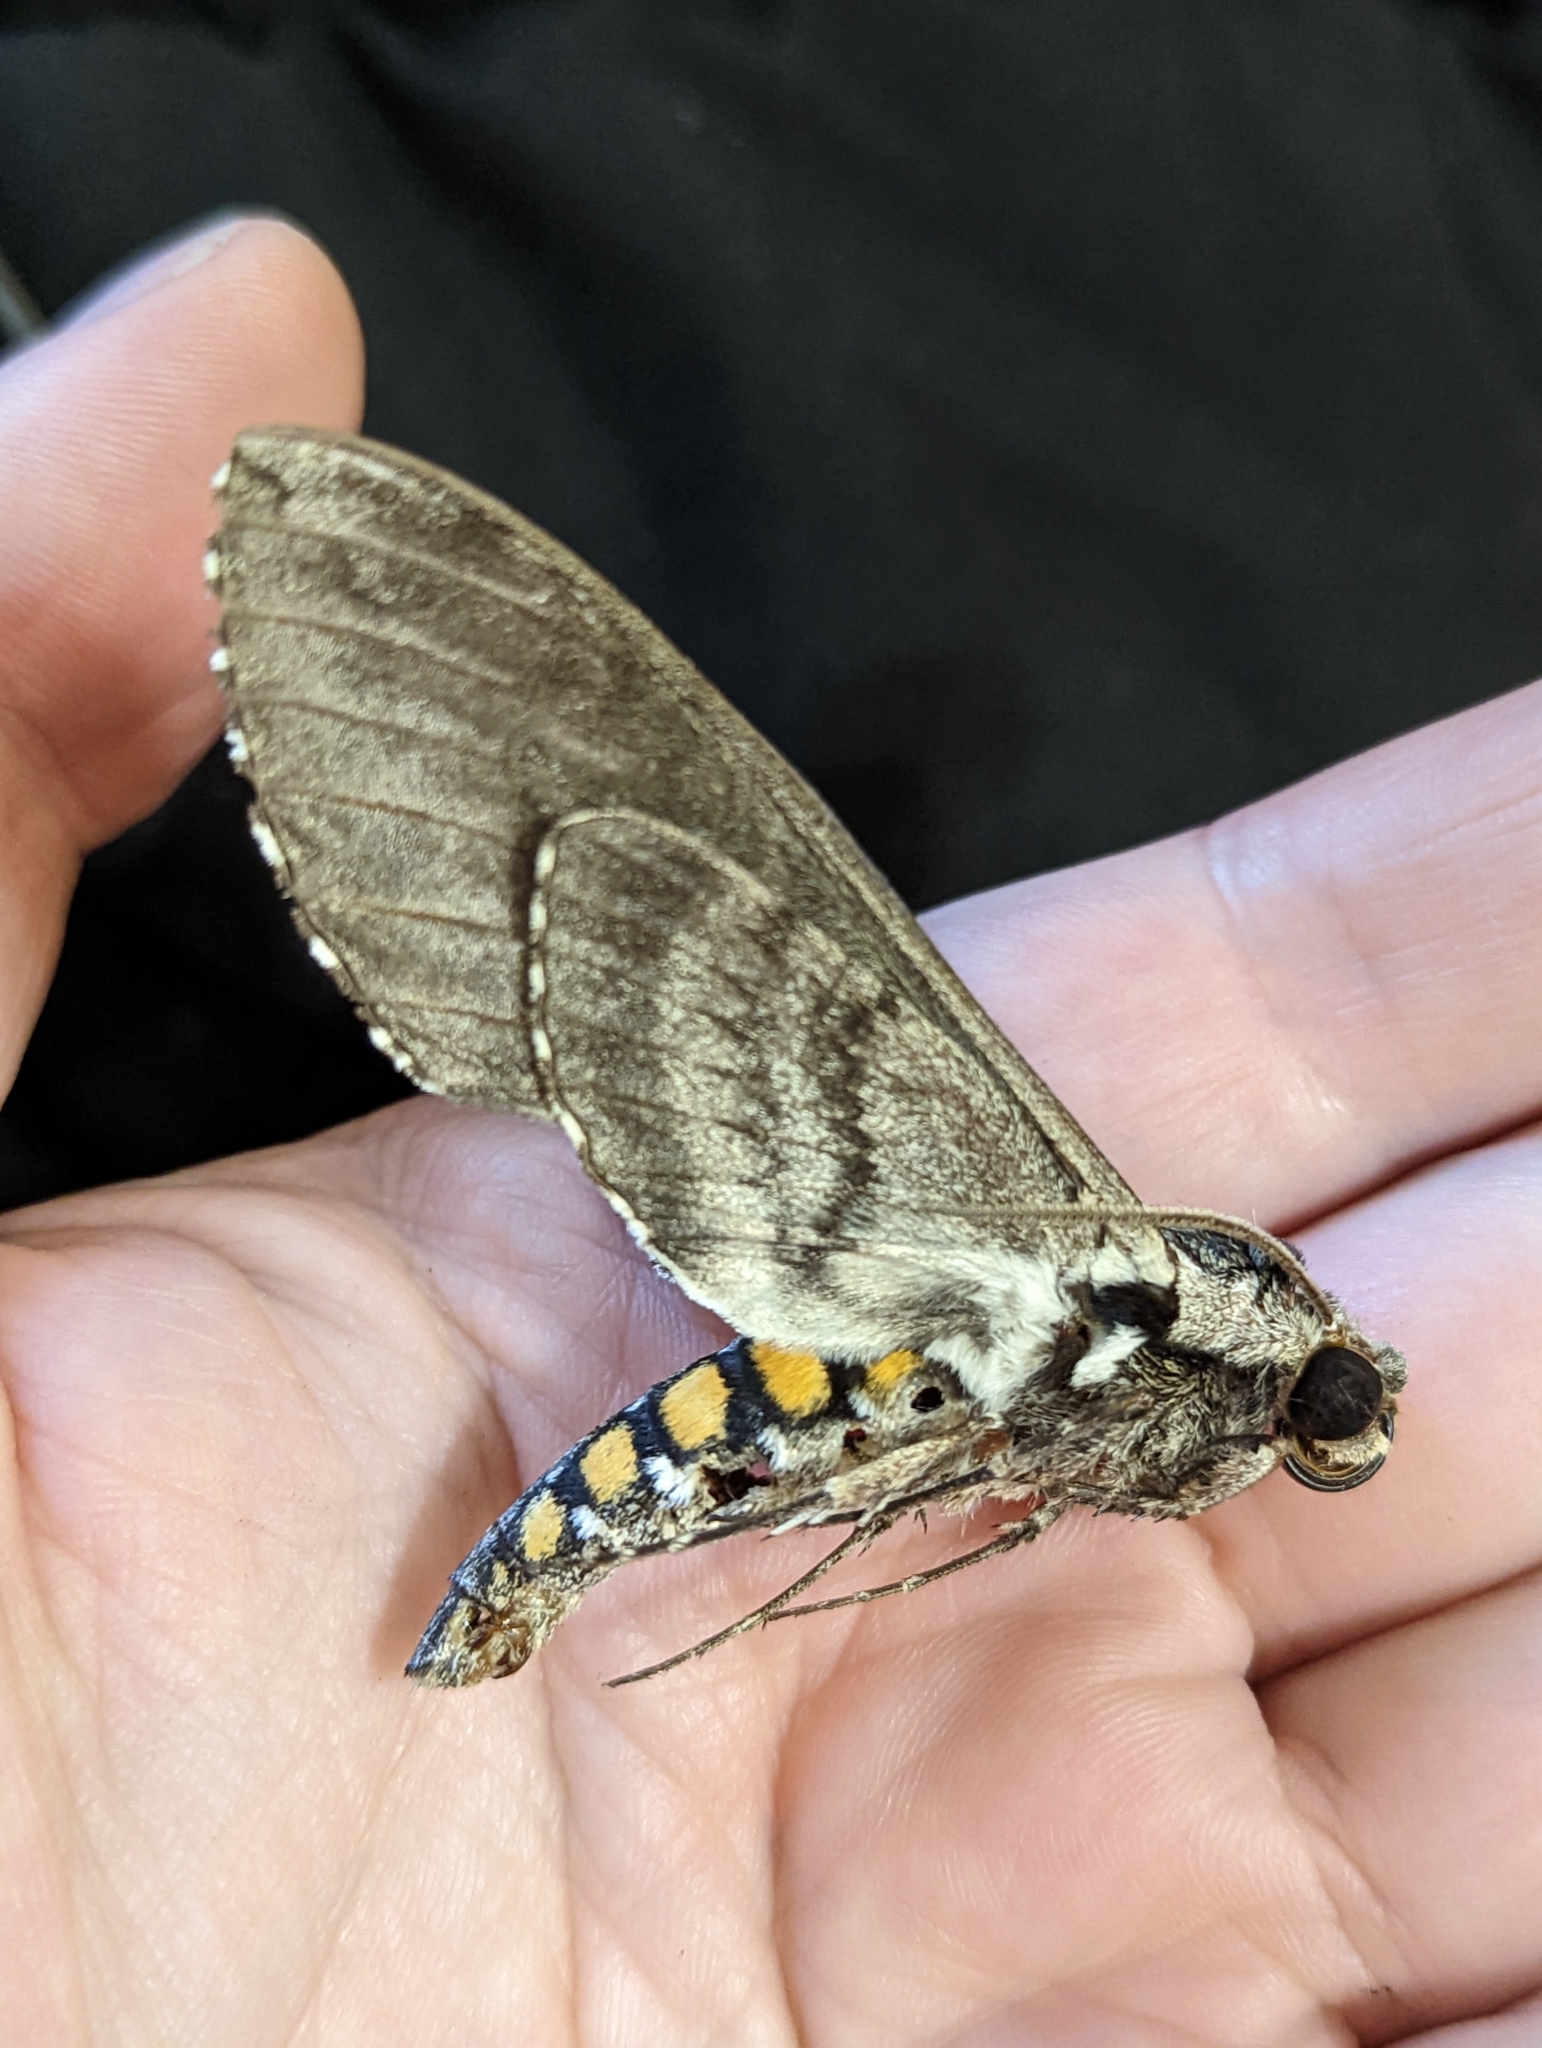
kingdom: Animalia
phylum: Arthropoda
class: Insecta
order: Lepidoptera
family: Sphingidae
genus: Manduca
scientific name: Manduca sexta
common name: Carolina sphinx
